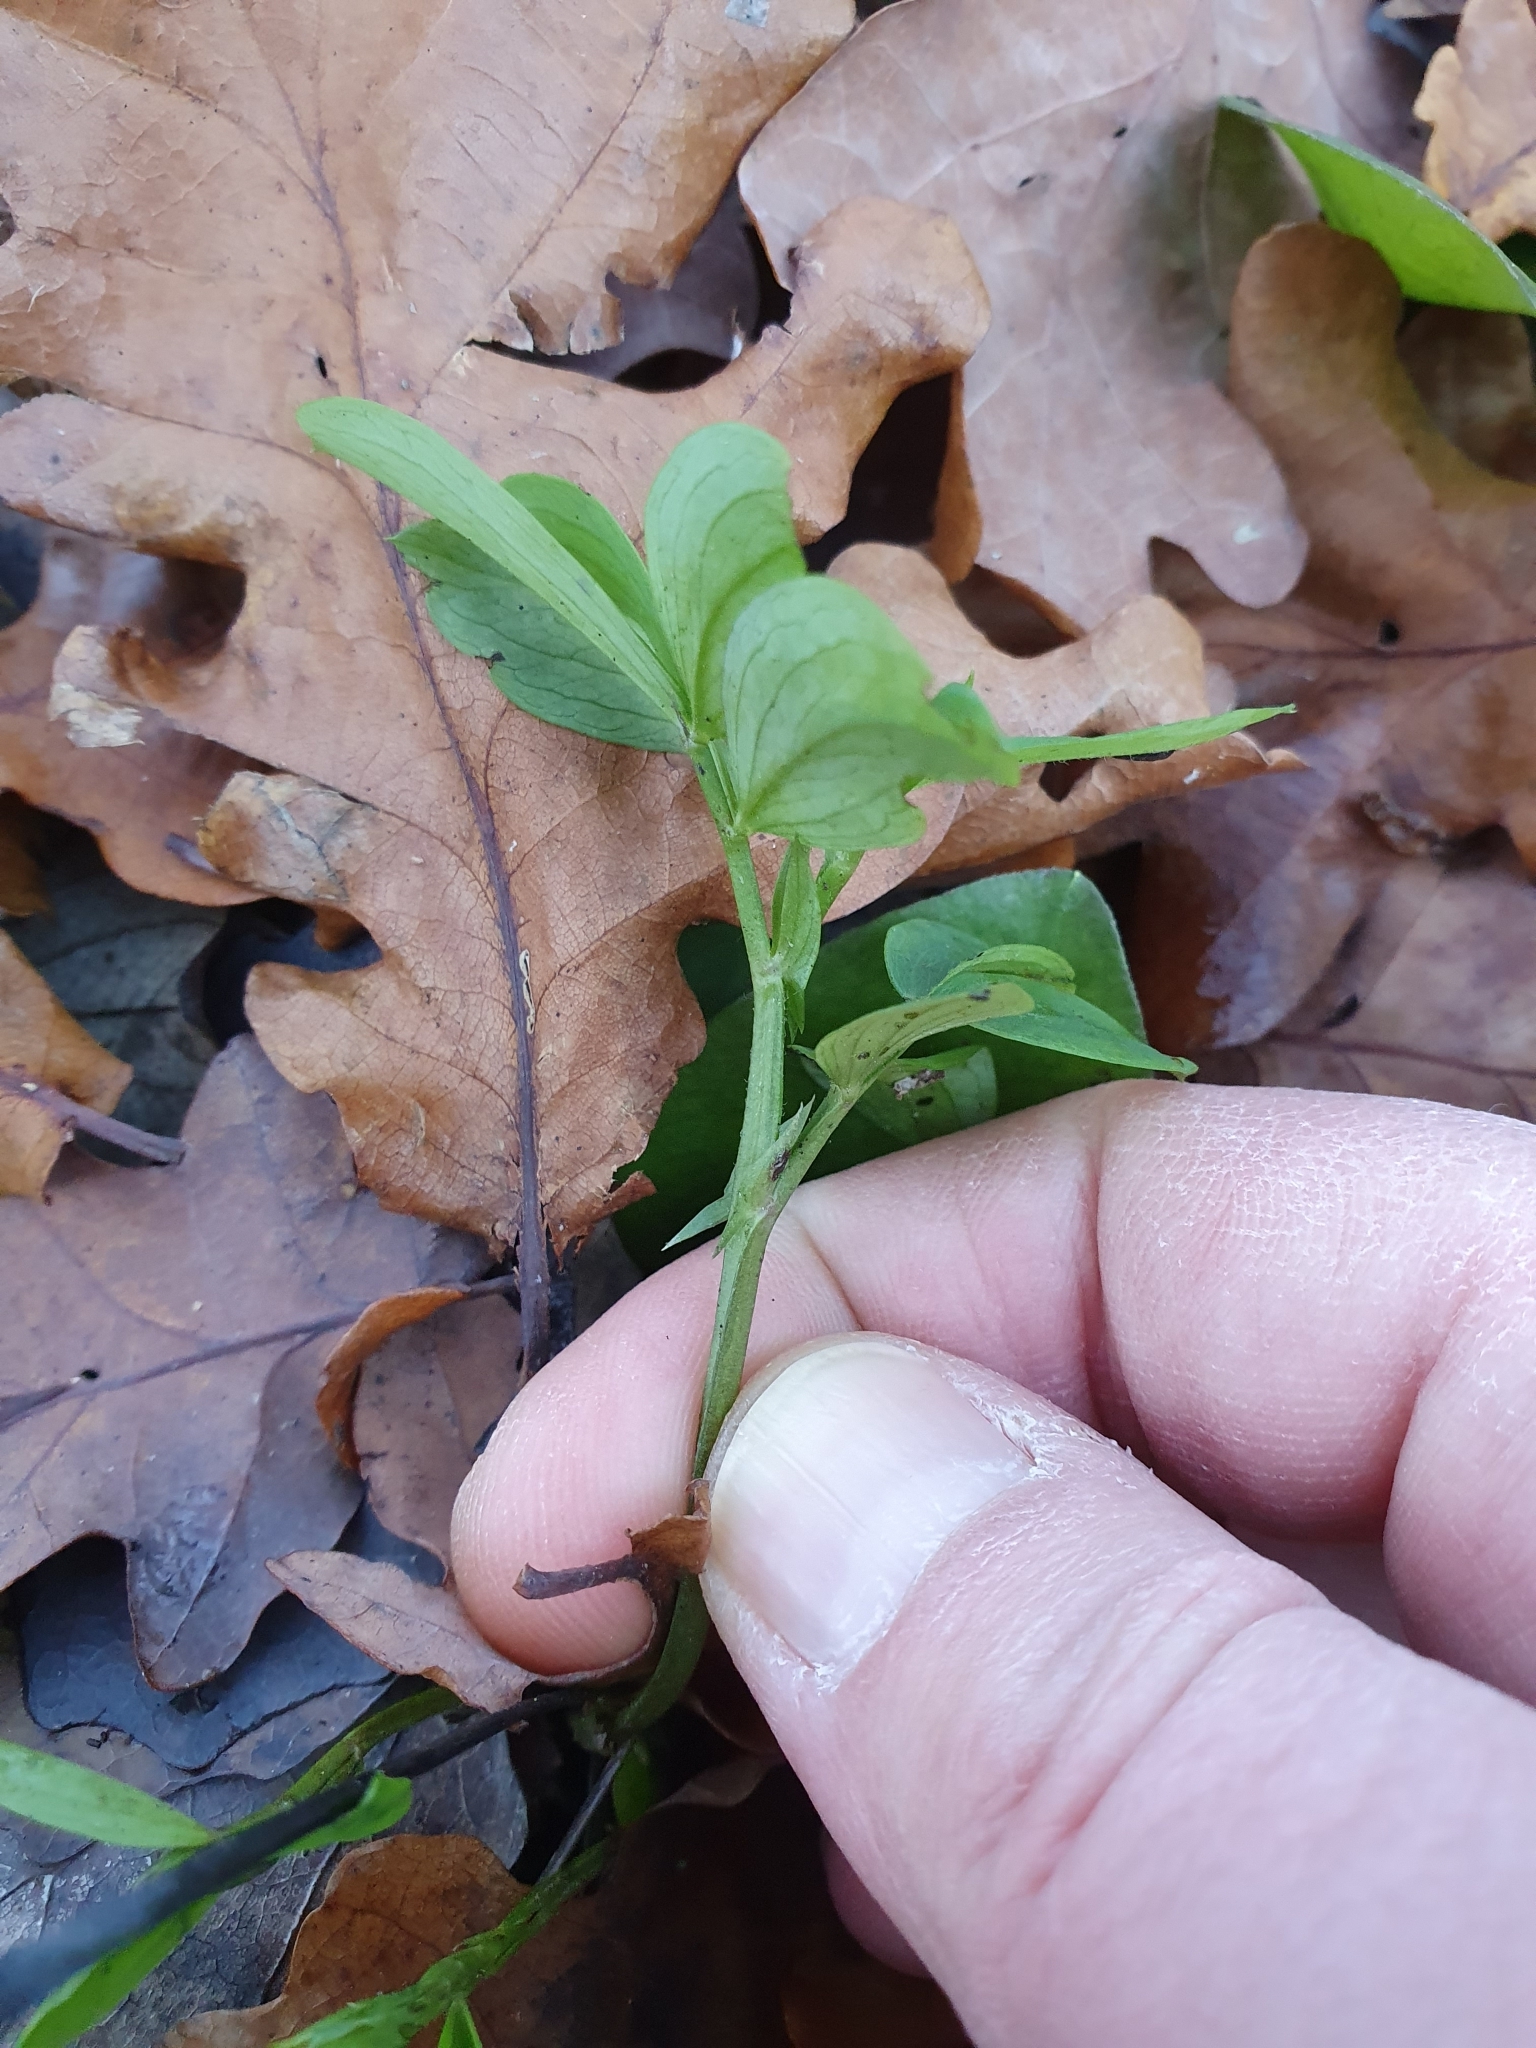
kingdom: Plantae
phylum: Tracheophyta
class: Magnoliopsida
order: Fabales
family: Fabaceae
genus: Lathyrus
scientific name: Lathyrus linifolius
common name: Bitter-vetch
